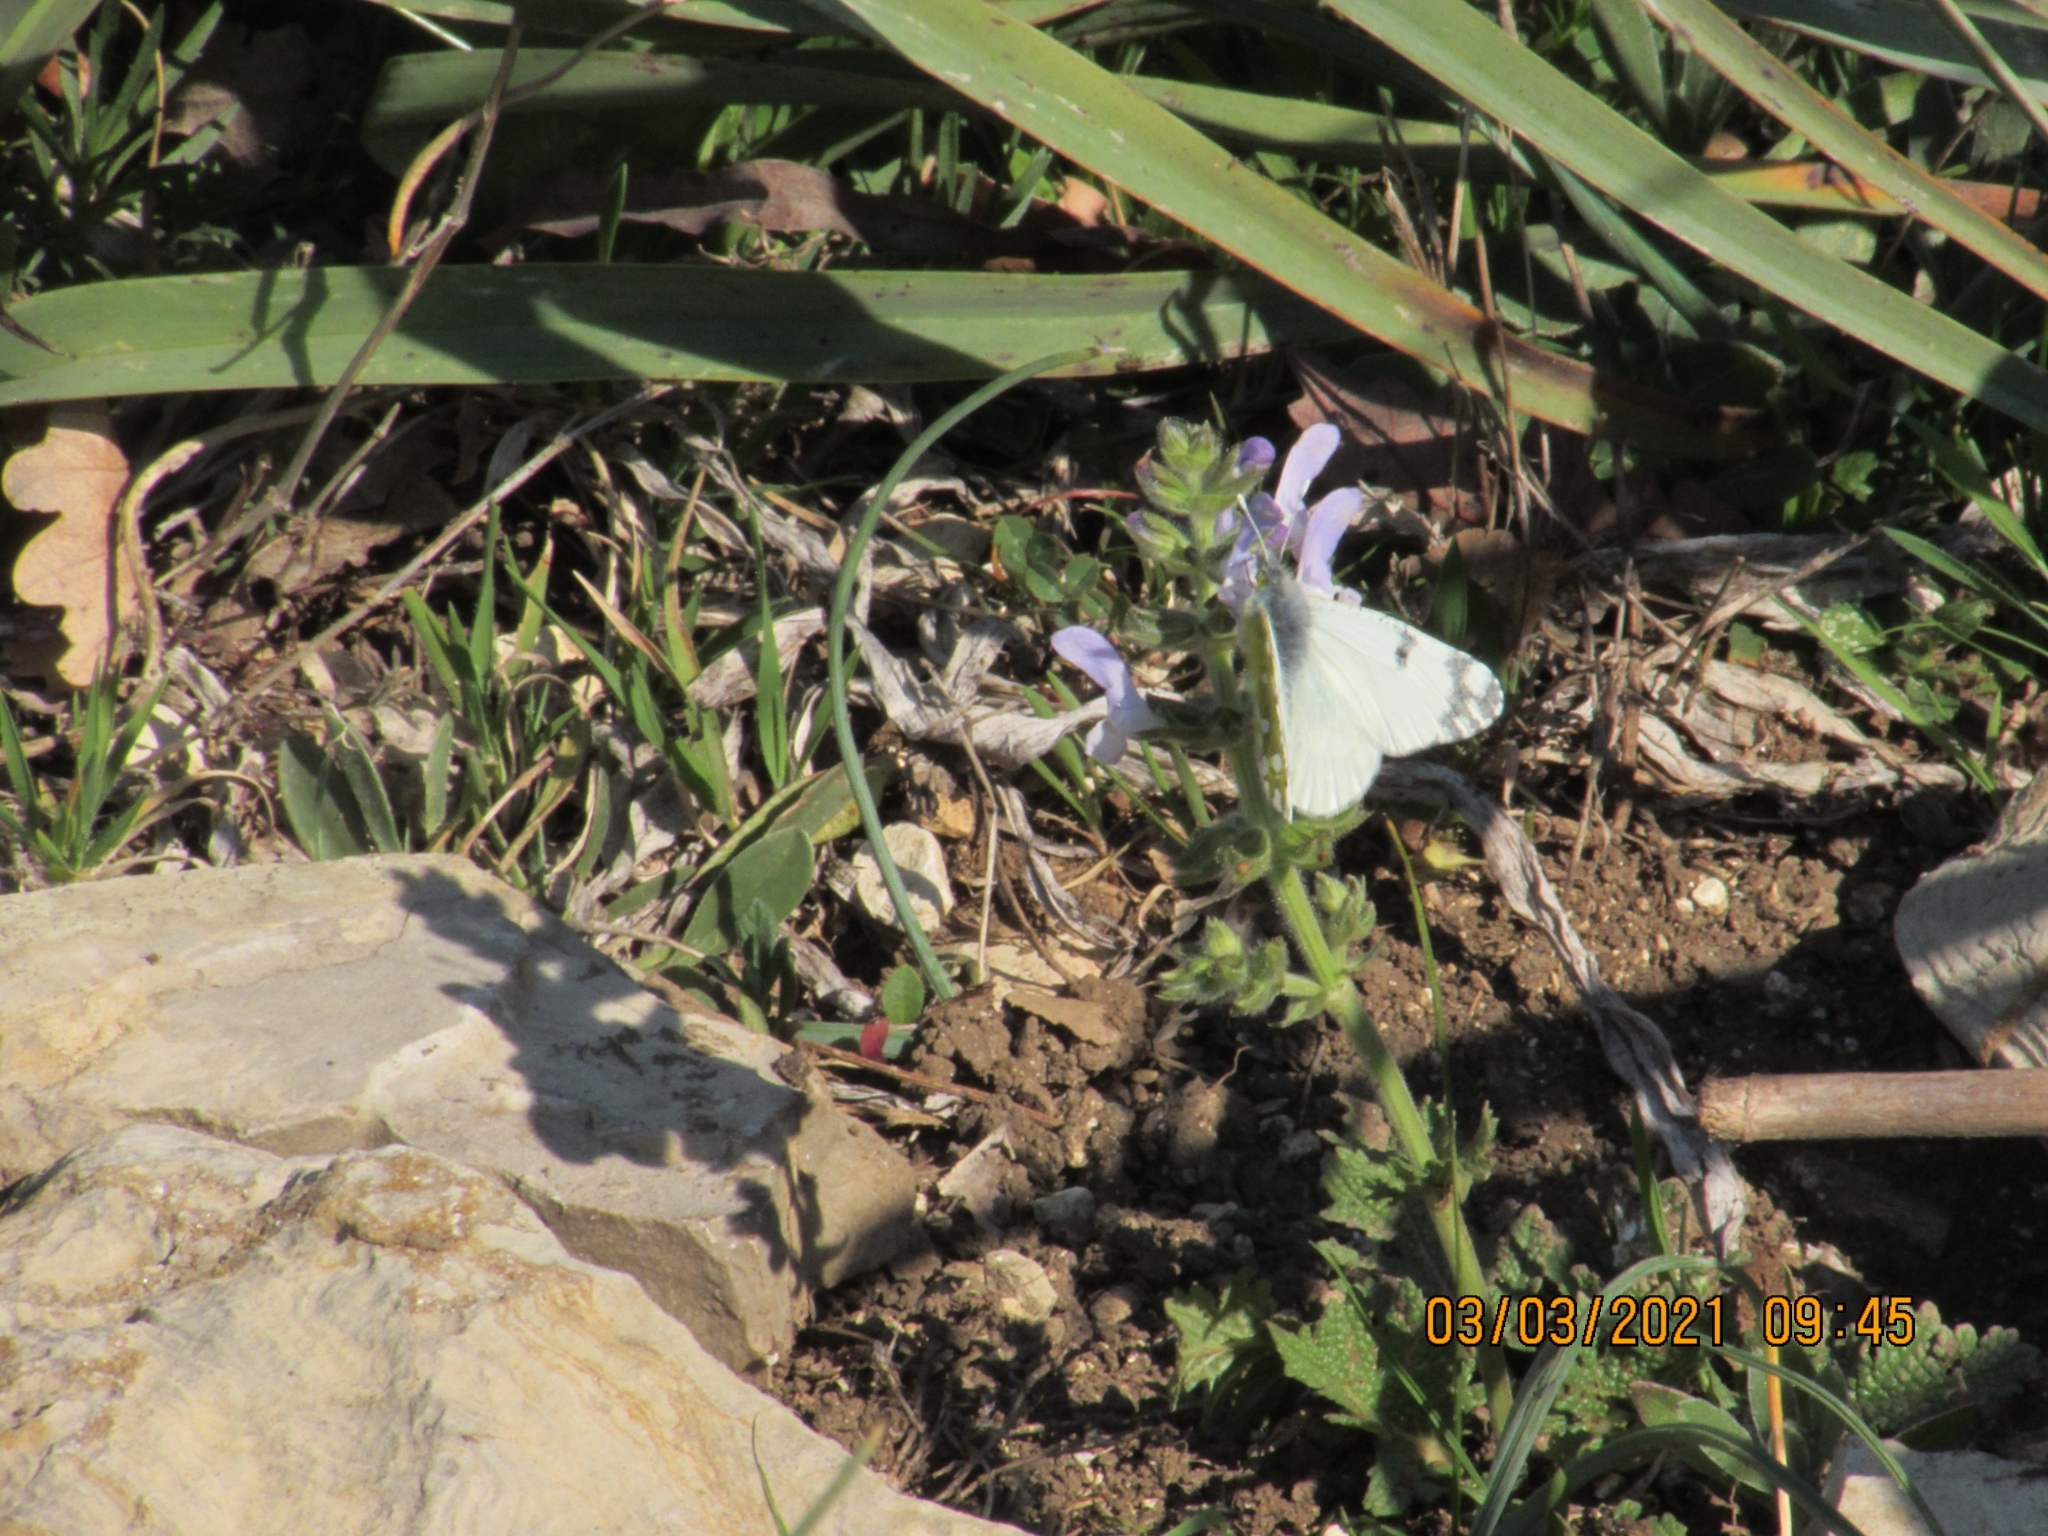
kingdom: Animalia
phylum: Arthropoda
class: Insecta
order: Lepidoptera
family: Pieridae
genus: Euchloe
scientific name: Euchloe ausonia
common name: Eastern dappled white
